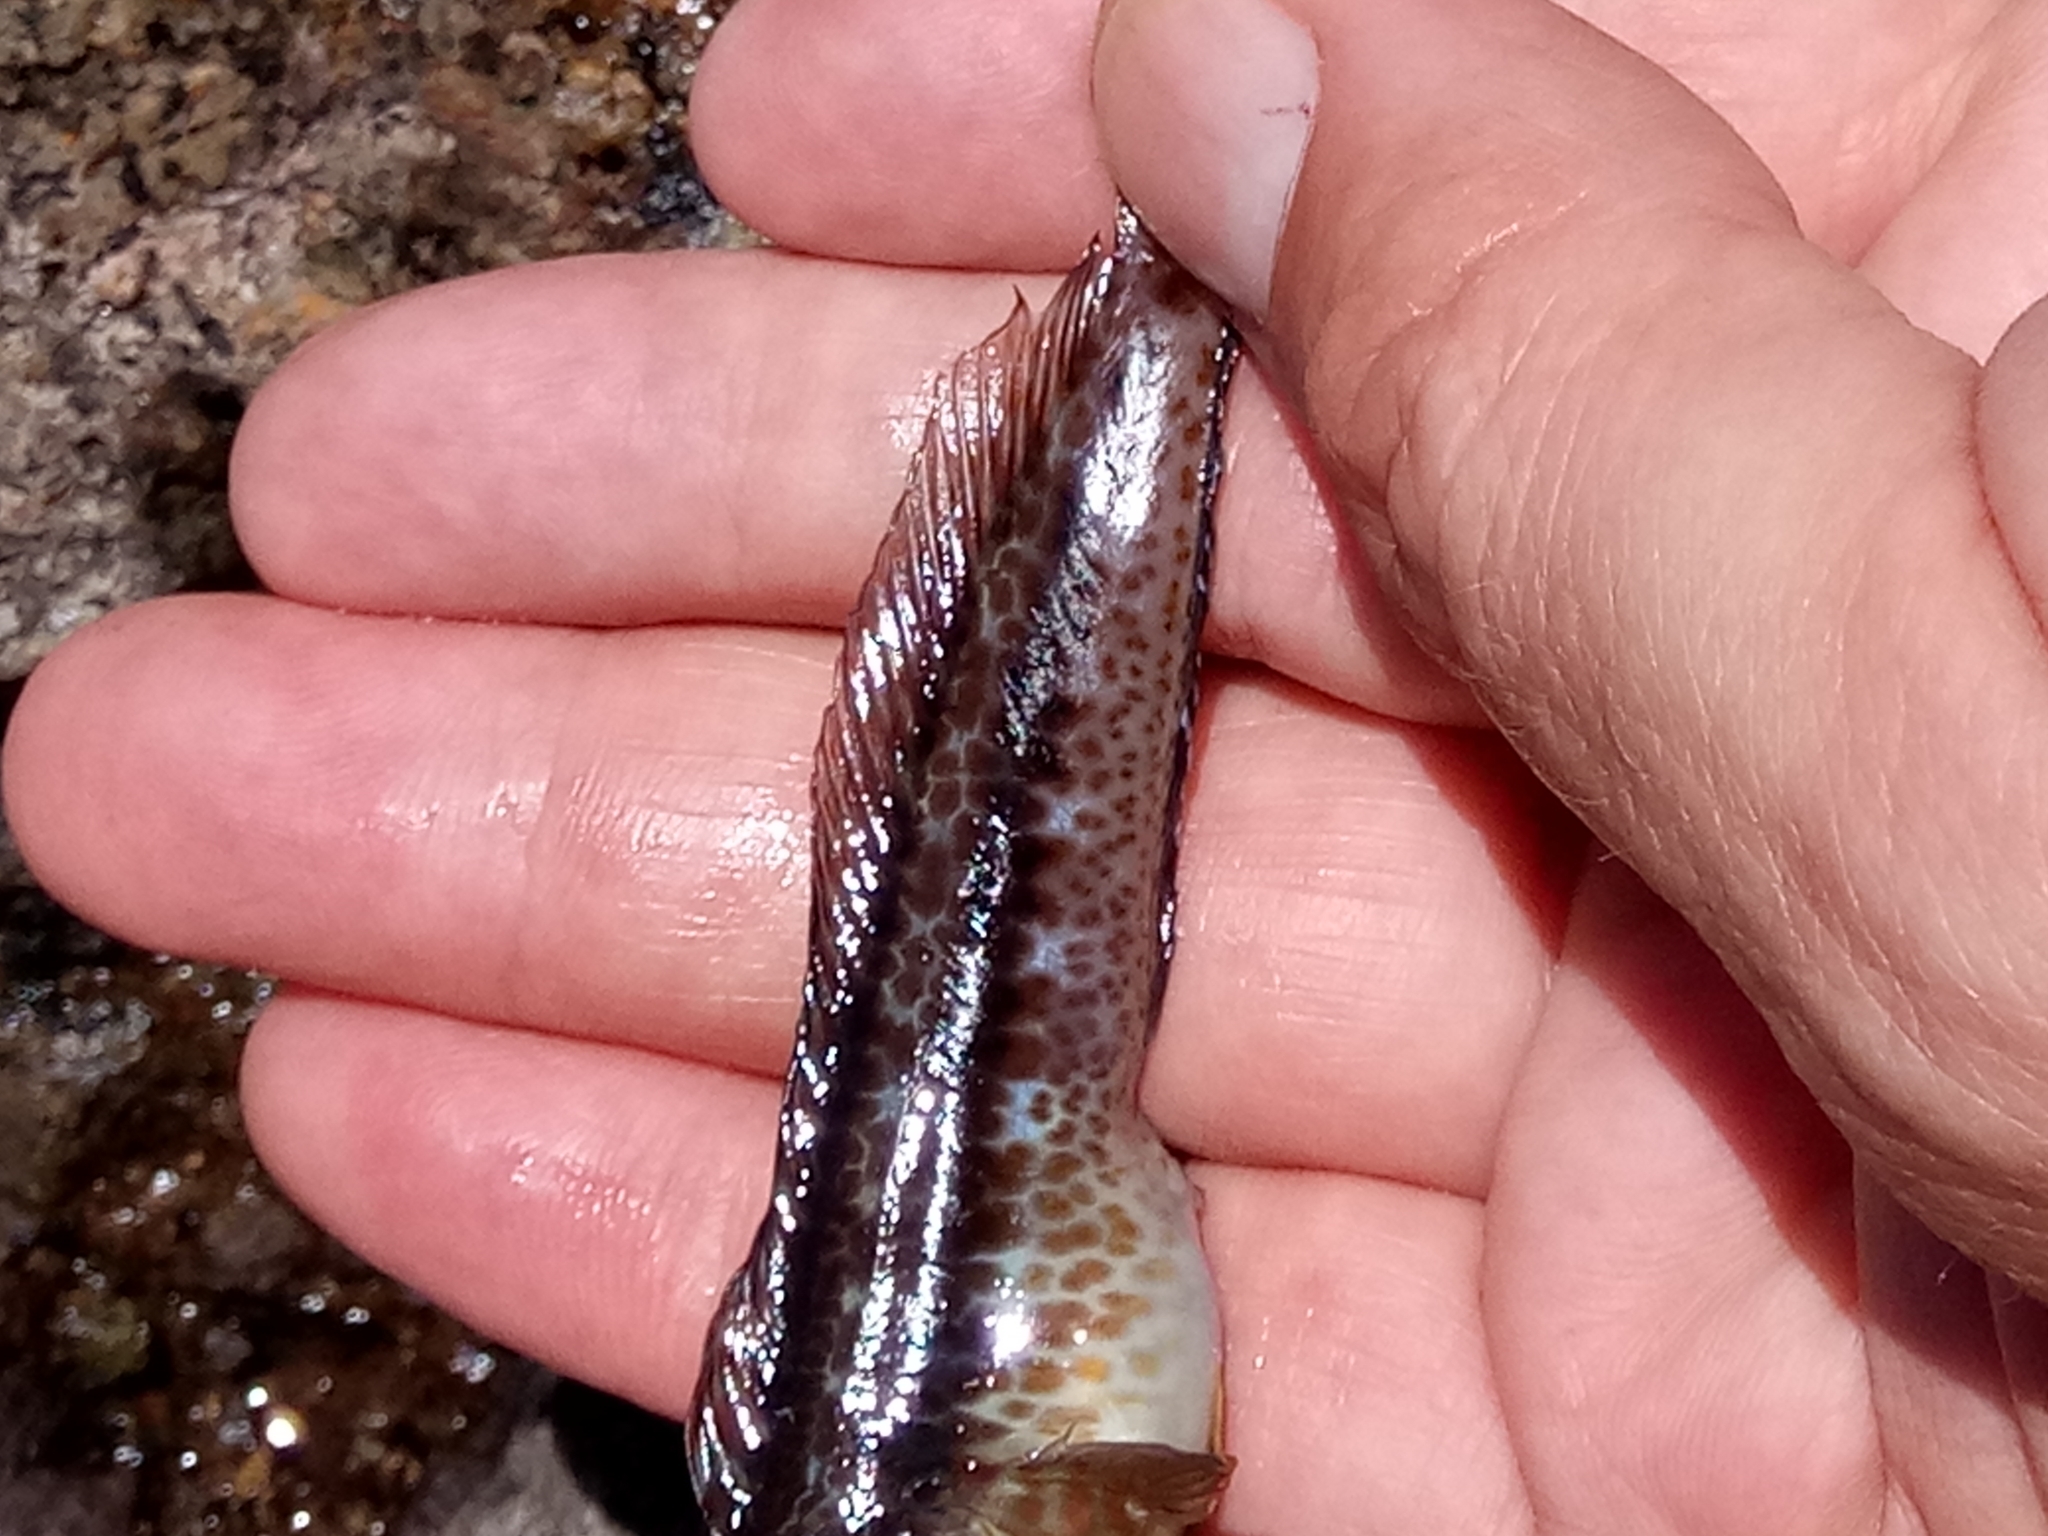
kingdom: Animalia
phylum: Chordata
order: Perciformes
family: Blenniidae
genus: Parablennius
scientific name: Parablennius pilicornis
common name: Ringneck blenny
